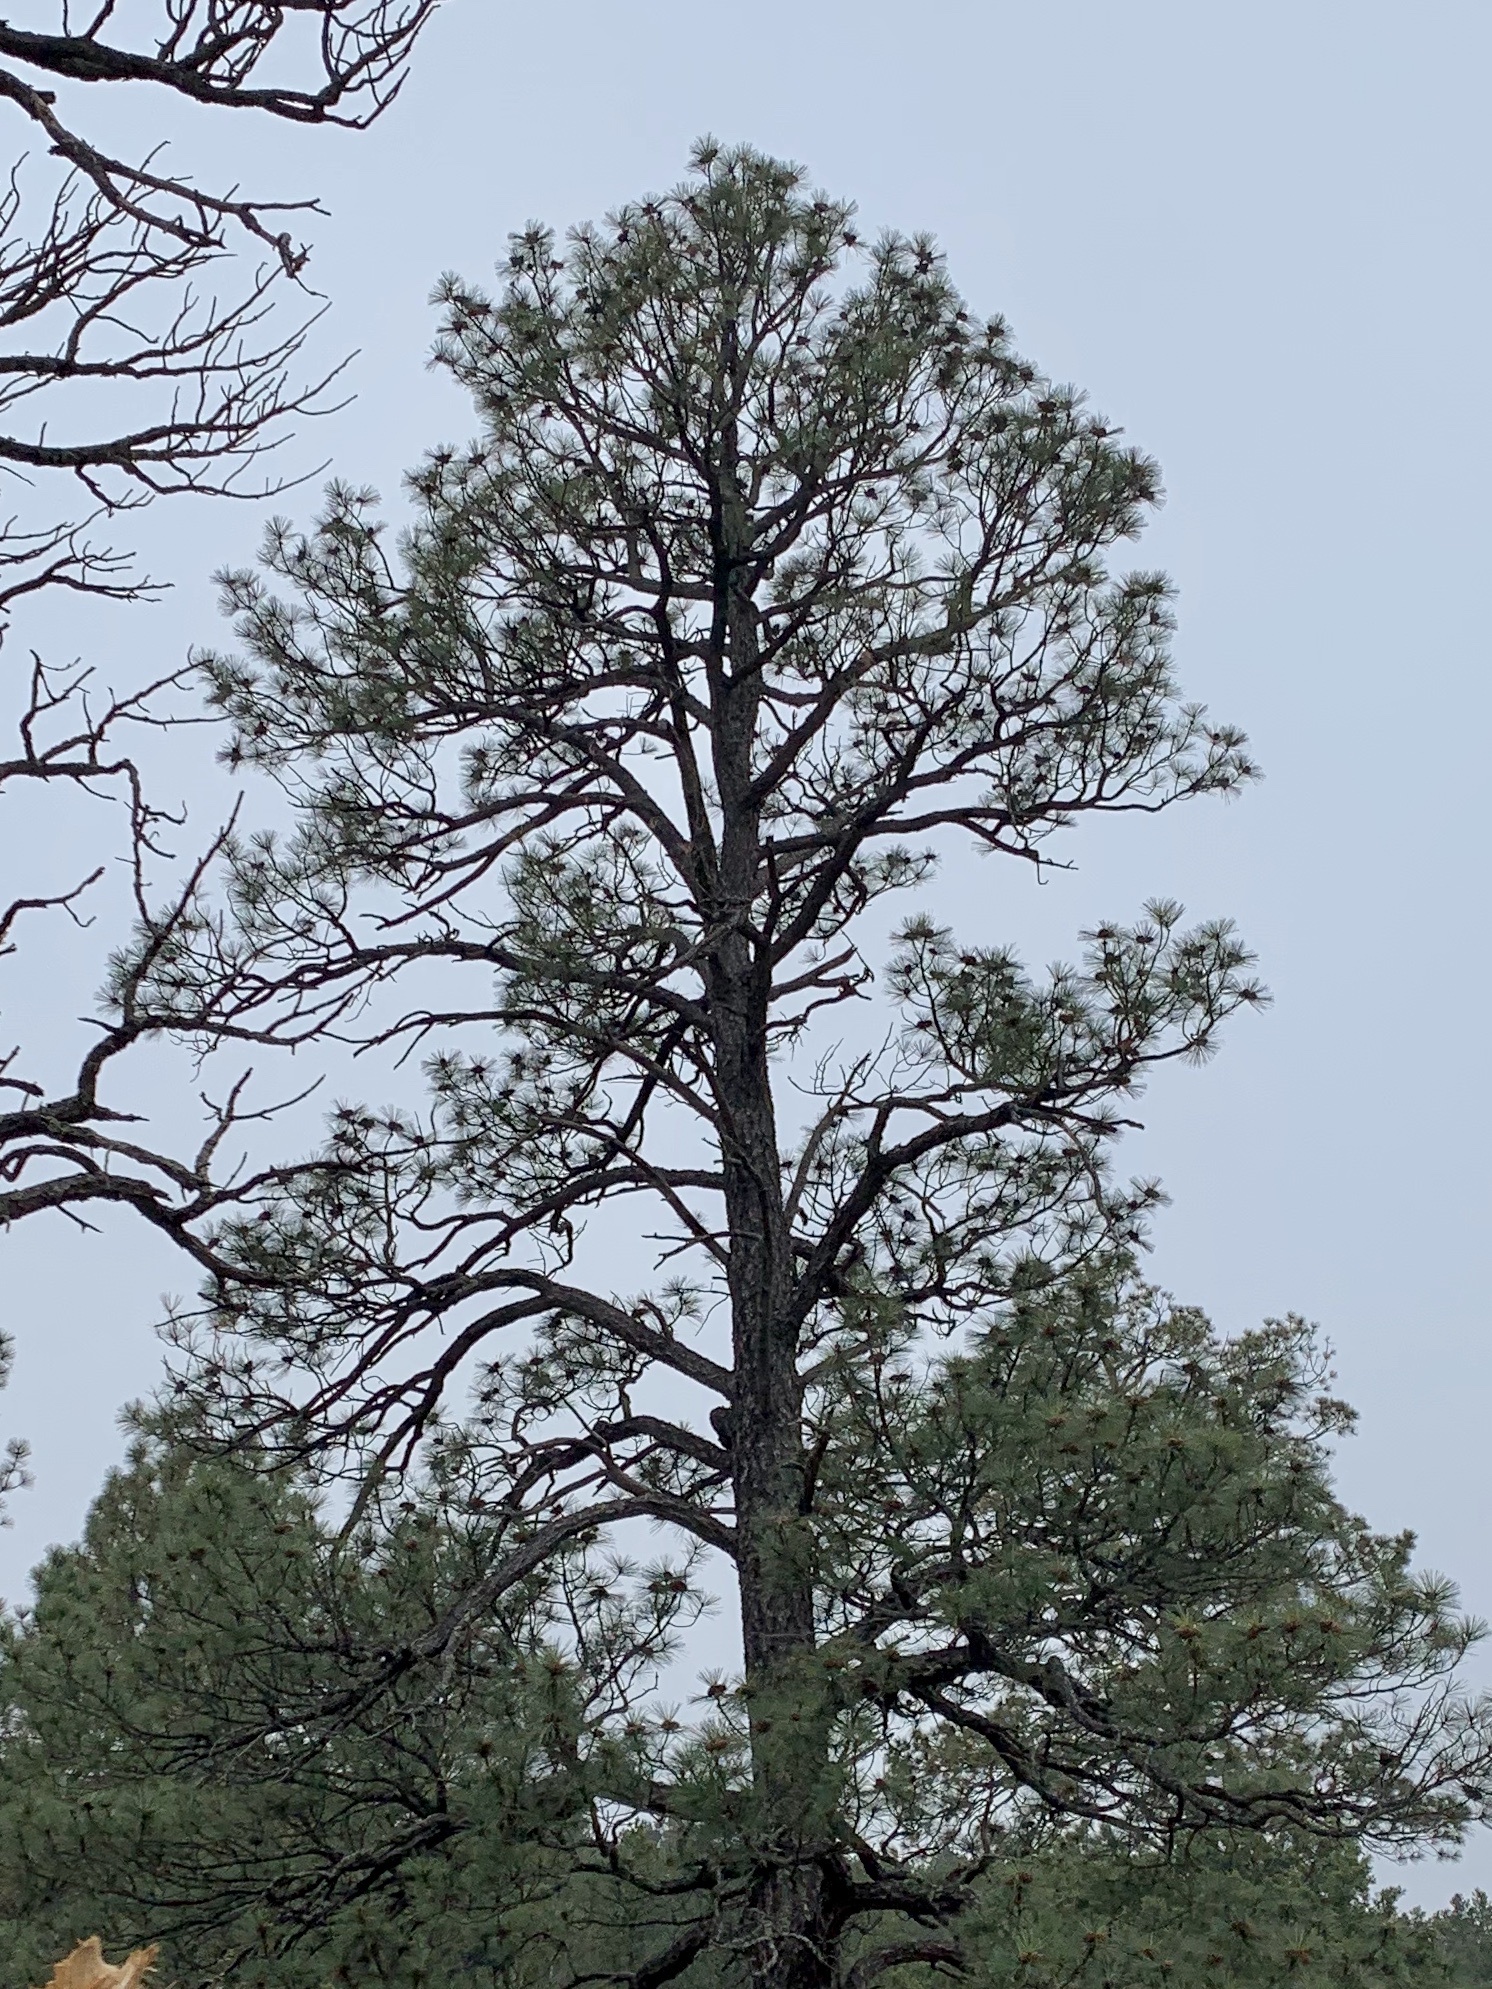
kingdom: Plantae
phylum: Tracheophyta
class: Pinopsida
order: Pinales
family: Pinaceae
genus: Pinus
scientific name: Pinus ponderosa
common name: Western yellow-pine
